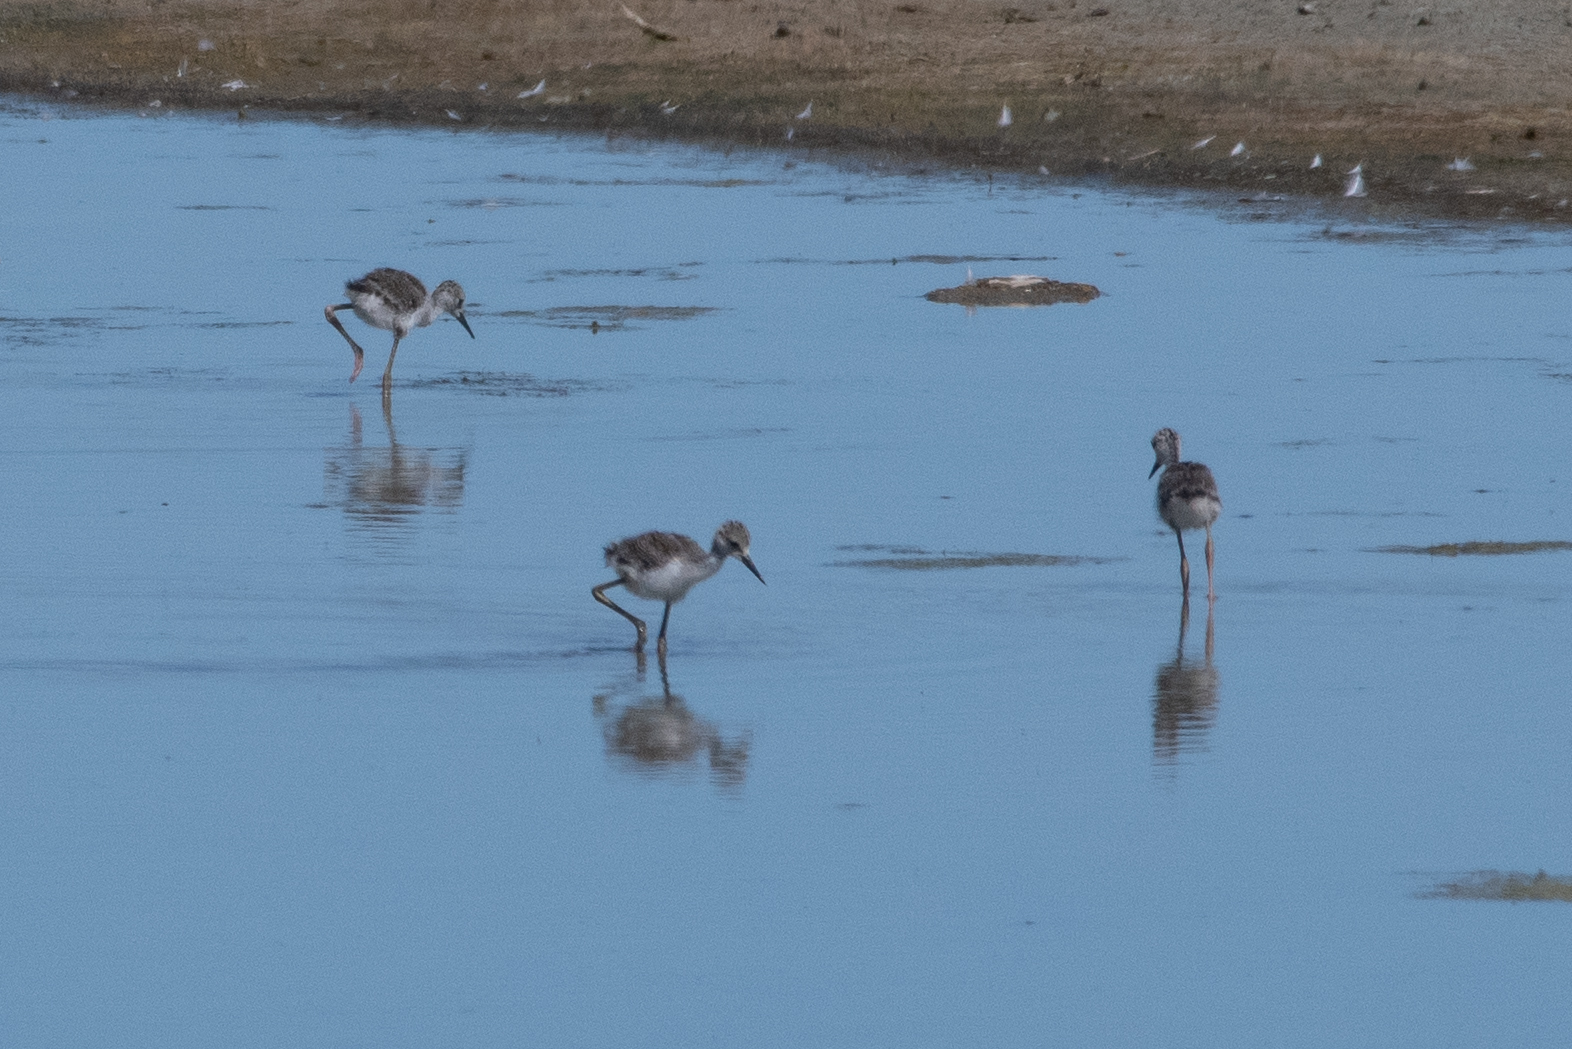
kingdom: Animalia
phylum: Chordata
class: Aves
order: Charadriiformes
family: Recurvirostridae
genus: Himantopus
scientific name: Himantopus mexicanus
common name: Black-necked stilt
